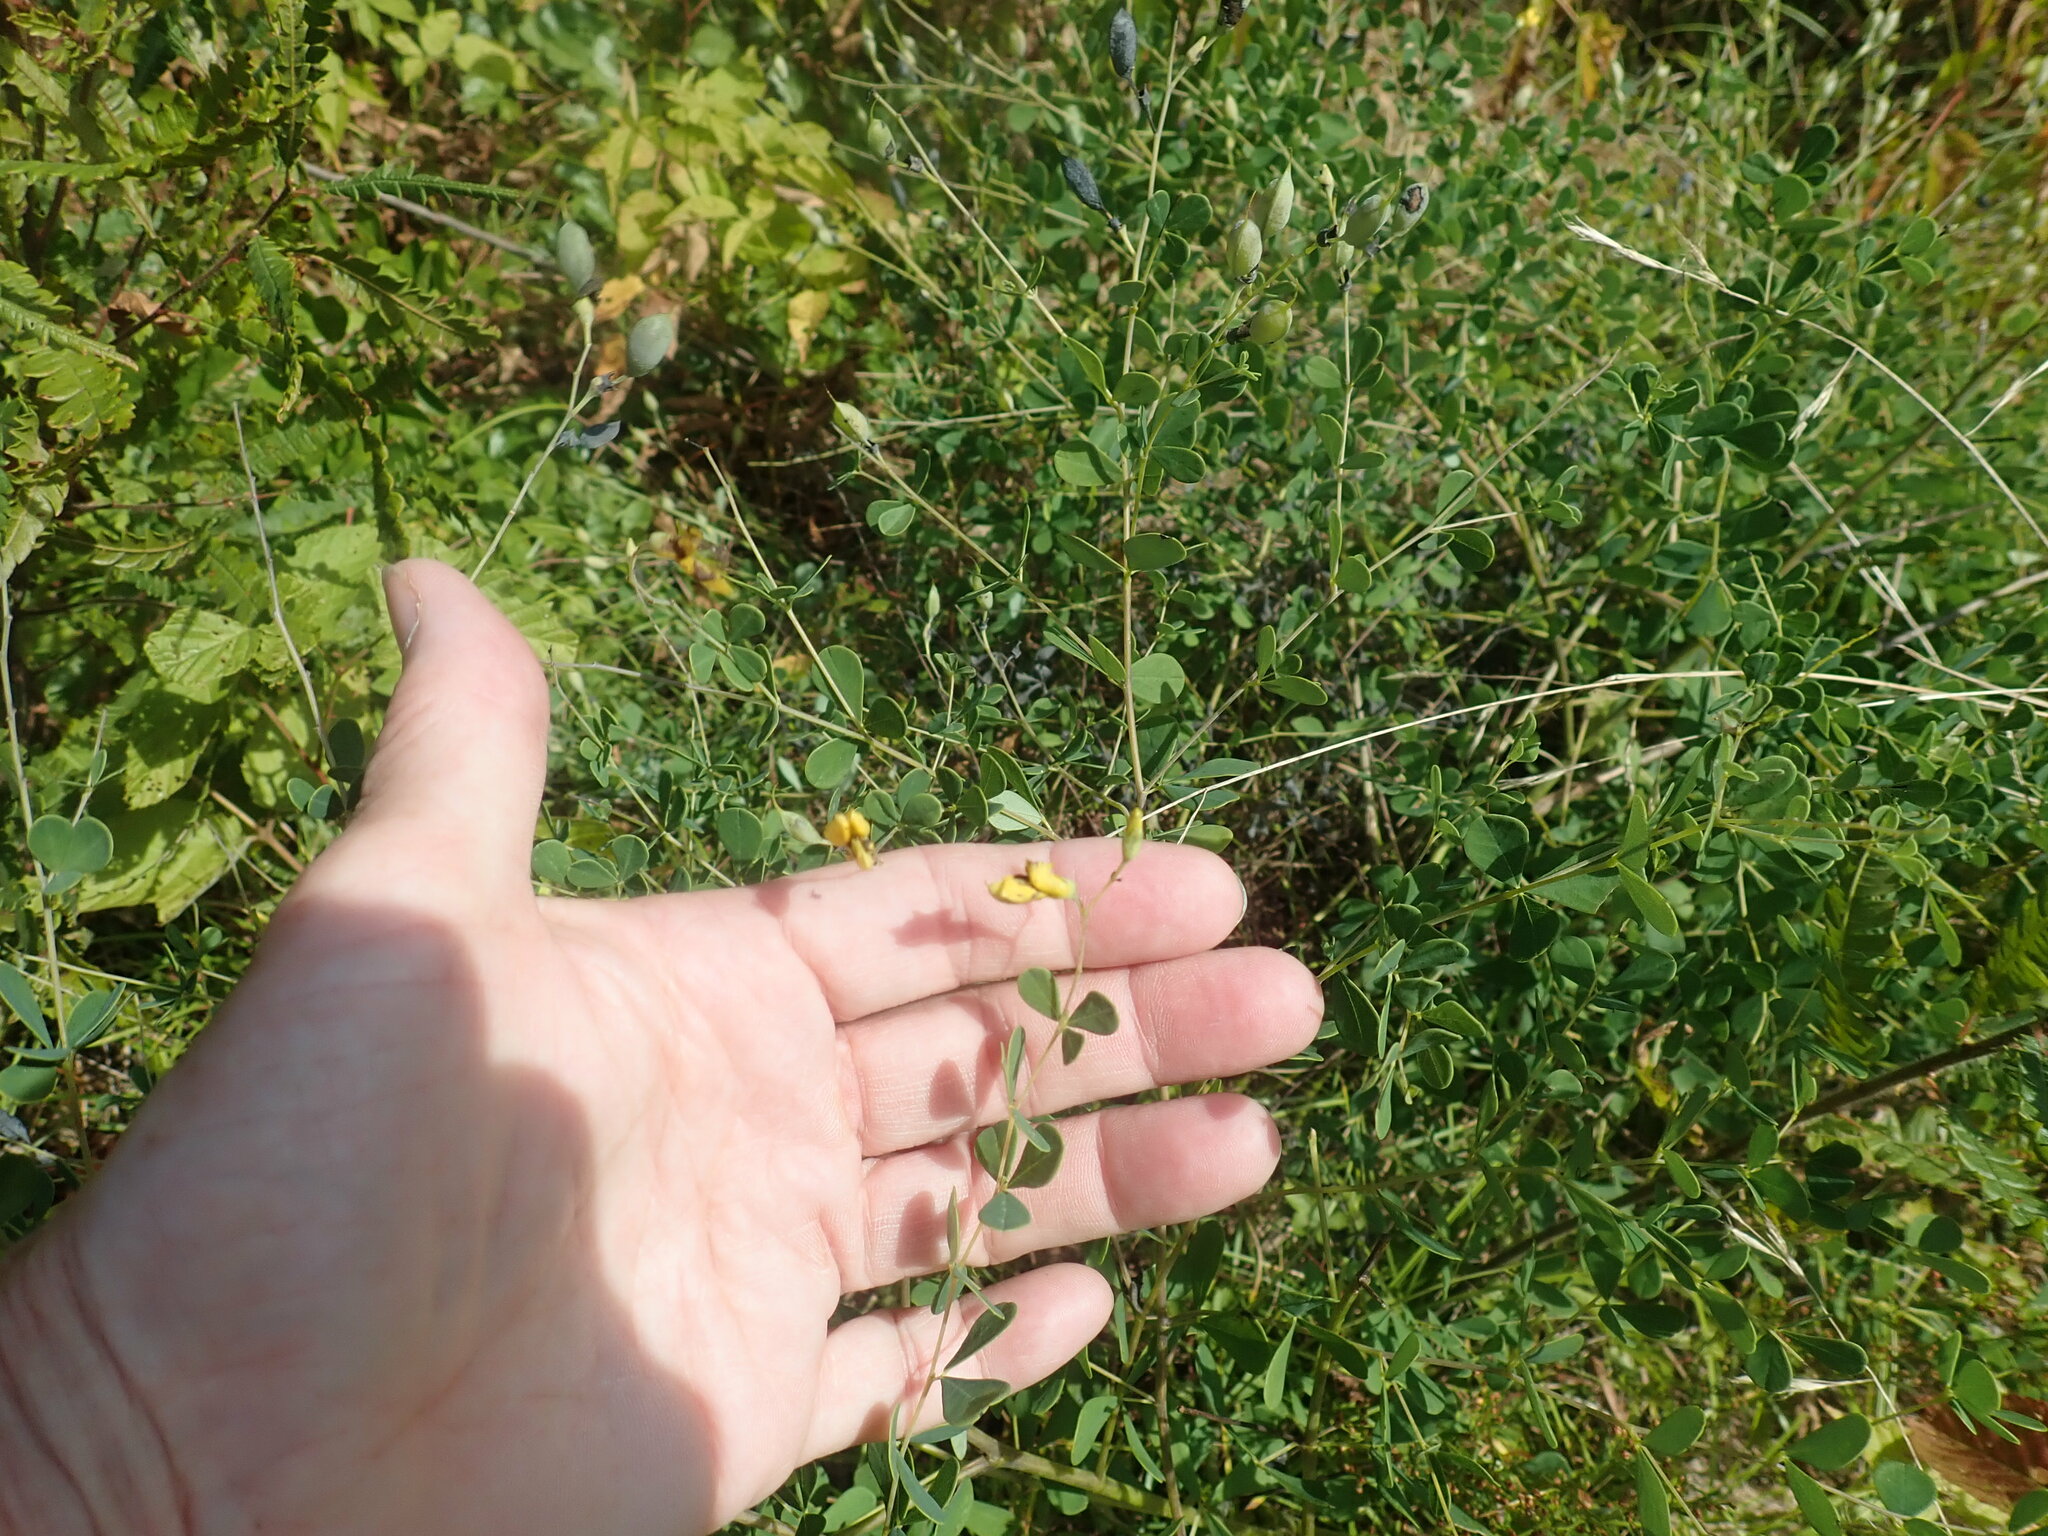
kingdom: Plantae
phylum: Tracheophyta
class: Magnoliopsida
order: Fabales
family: Fabaceae
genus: Baptisia
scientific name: Baptisia tinctoria
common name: Wild indigo
